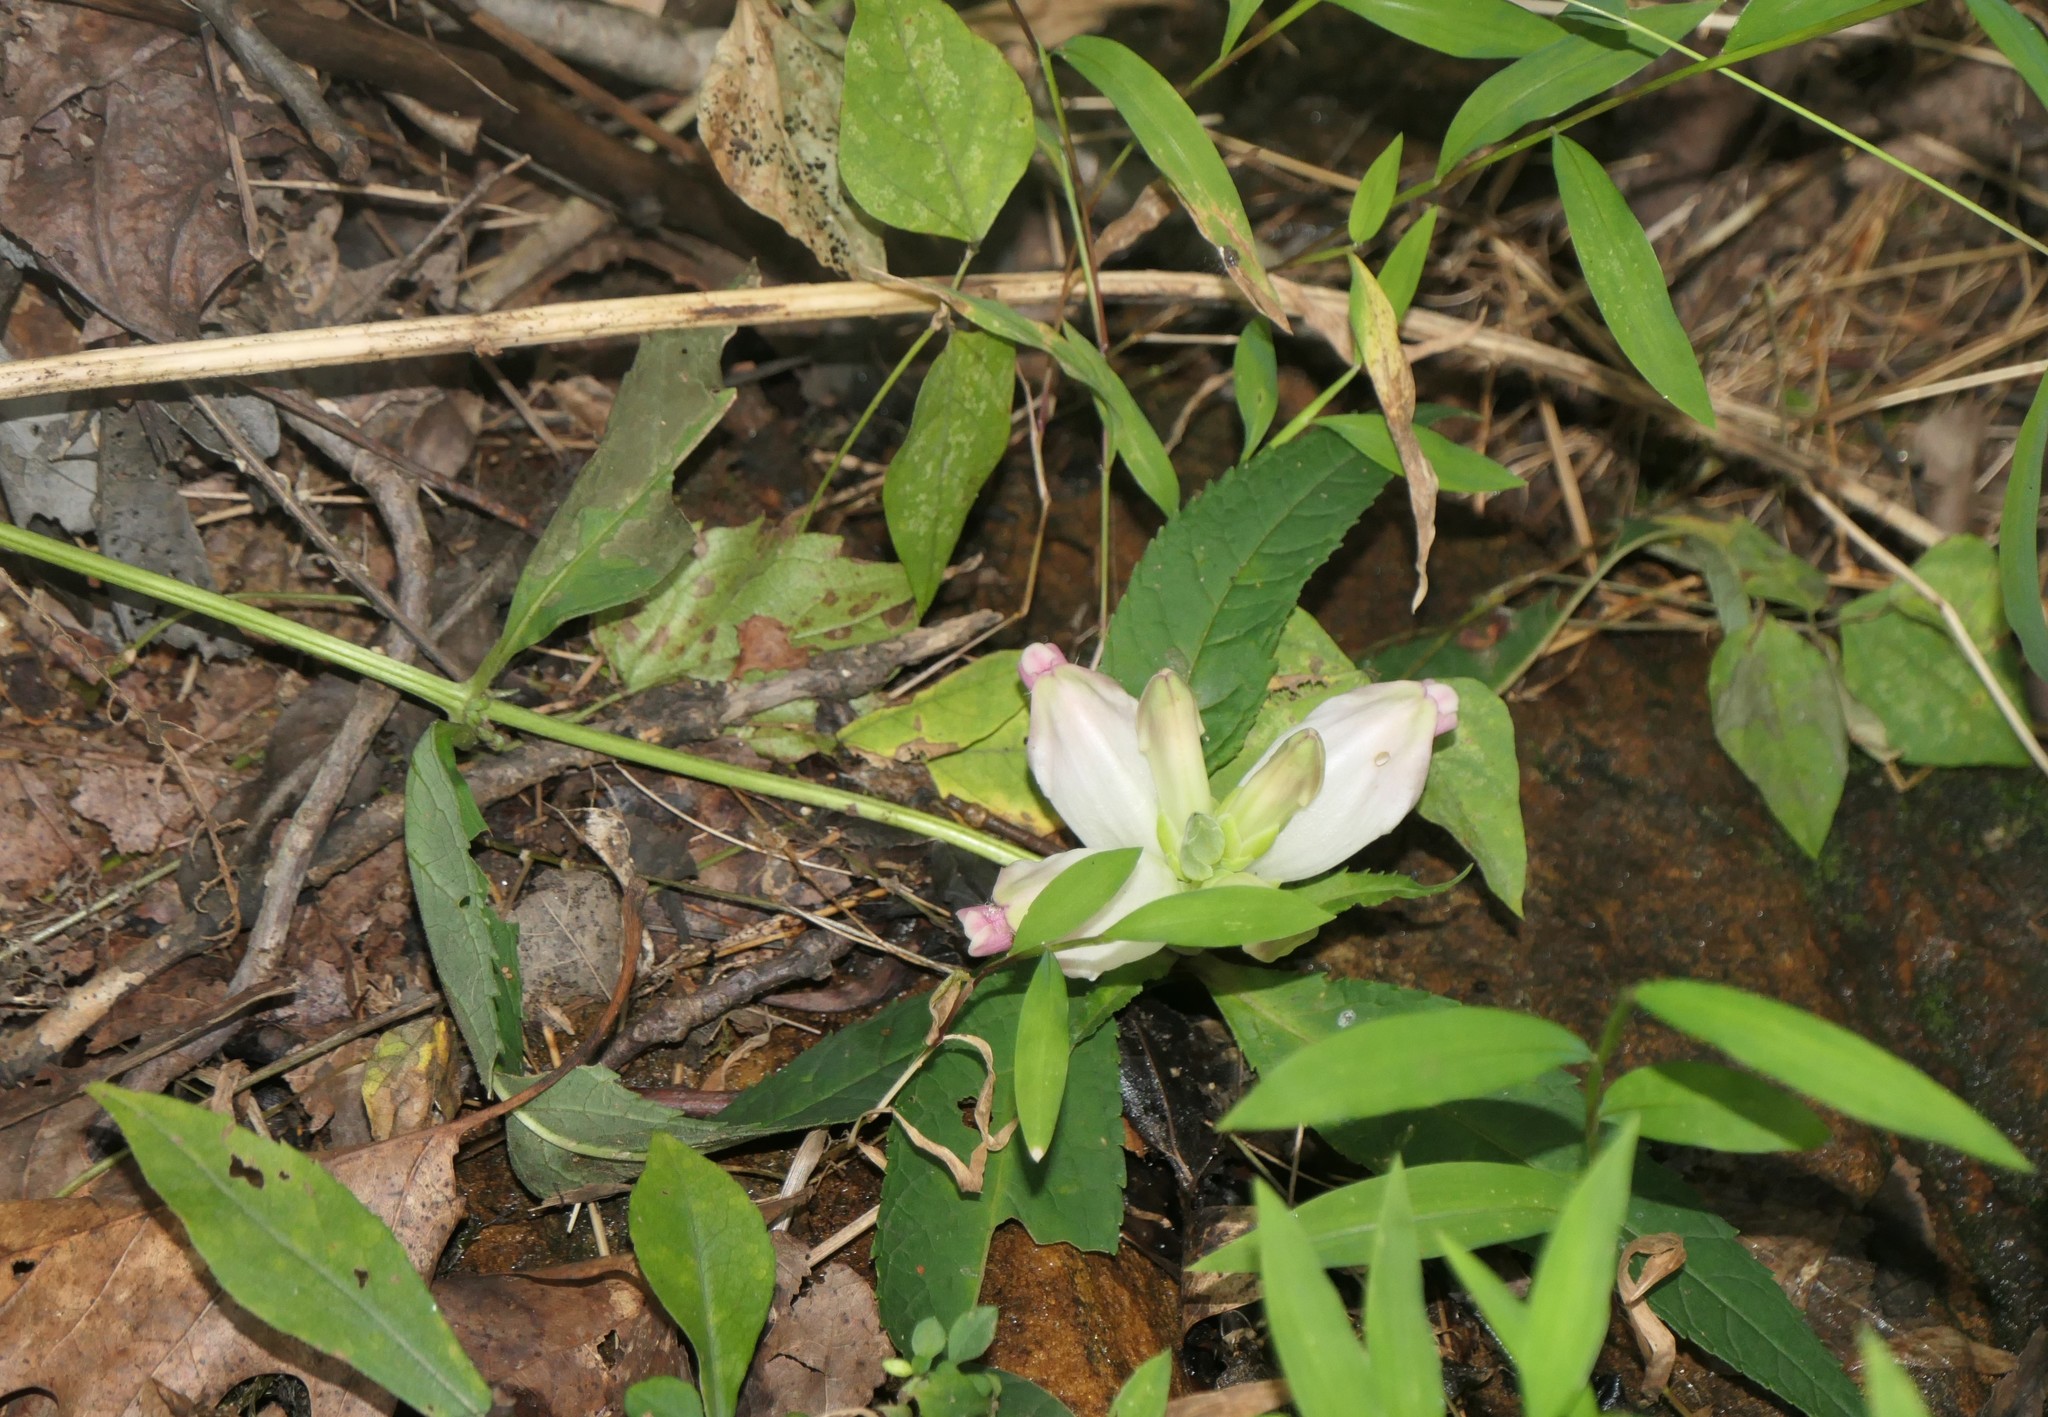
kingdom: Plantae
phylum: Tracheophyta
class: Magnoliopsida
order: Lamiales
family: Plantaginaceae
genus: Chelone
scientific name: Chelone glabra
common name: Snakehead
